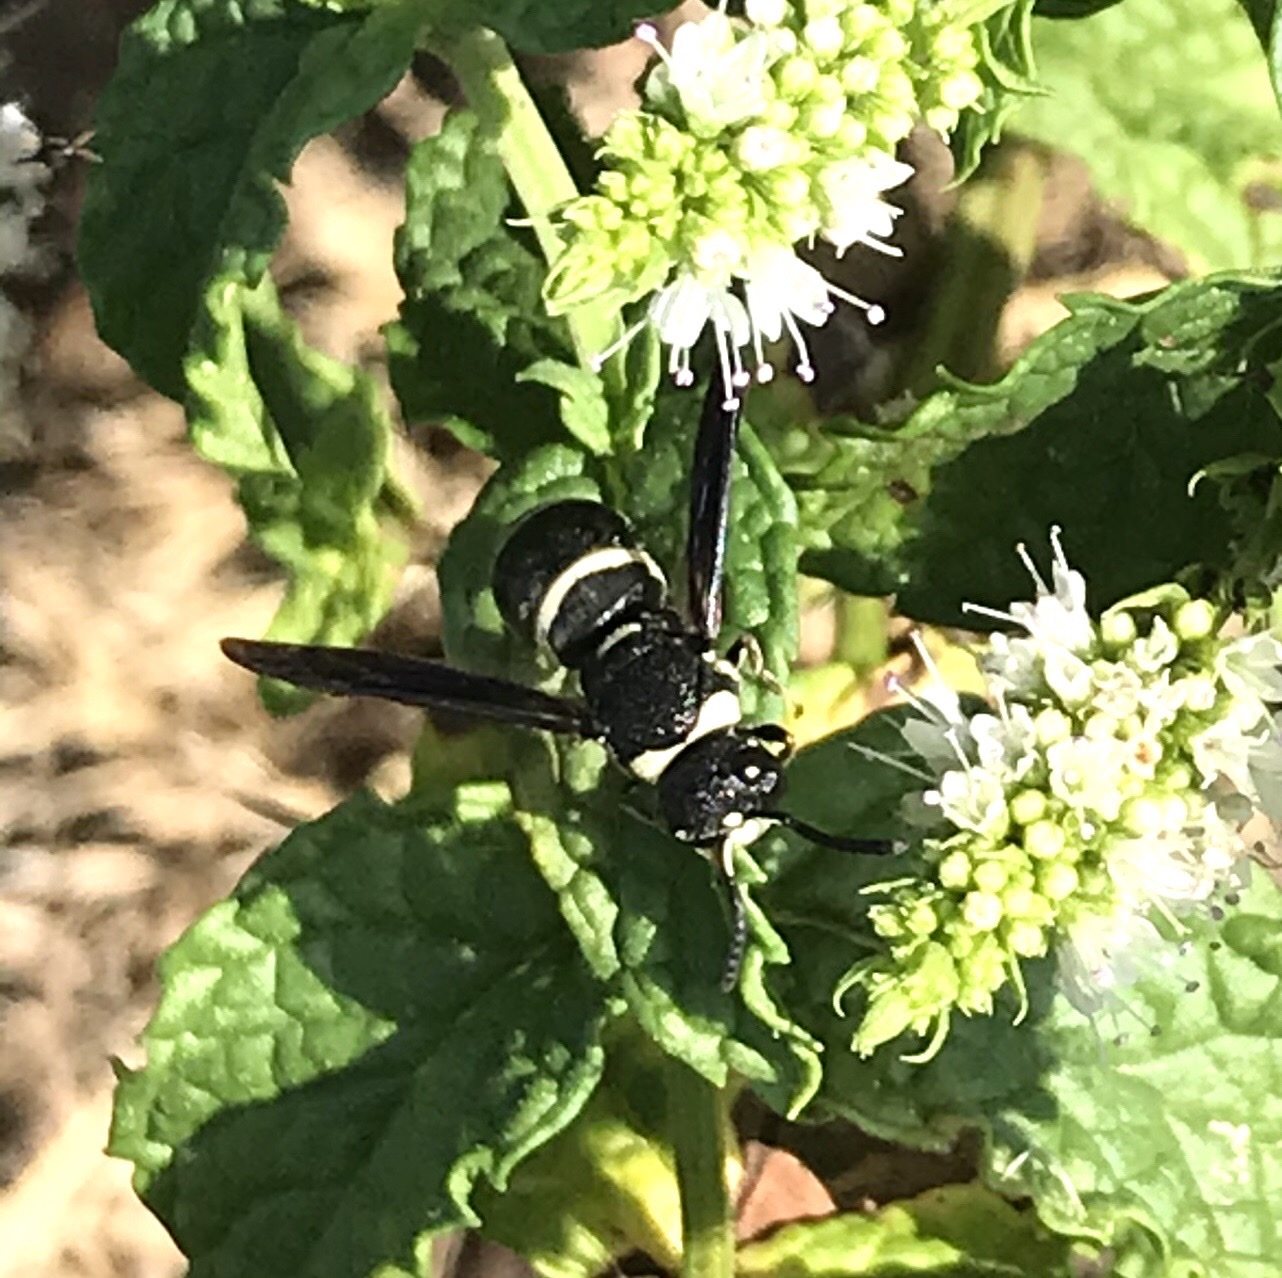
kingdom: Animalia
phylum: Arthropoda
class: Insecta
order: Hymenoptera
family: Eumenidae
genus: Euodynerus
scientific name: Euodynerus
